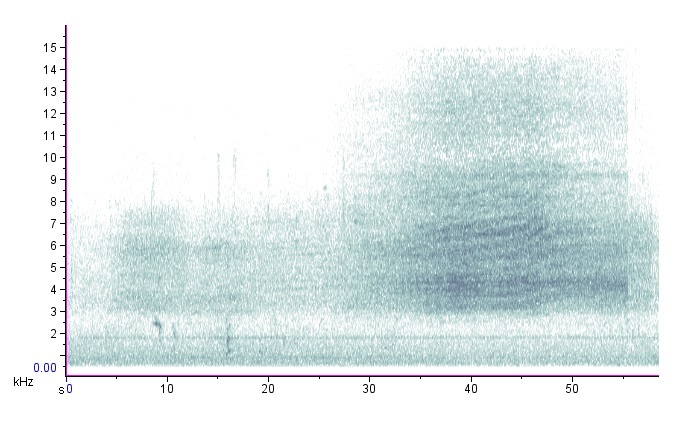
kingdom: Animalia
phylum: Arthropoda
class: Insecta
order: Hemiptera
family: Cicadidae
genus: Neotibicen
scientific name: Neotibicen lyricen
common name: Lyric cicada
